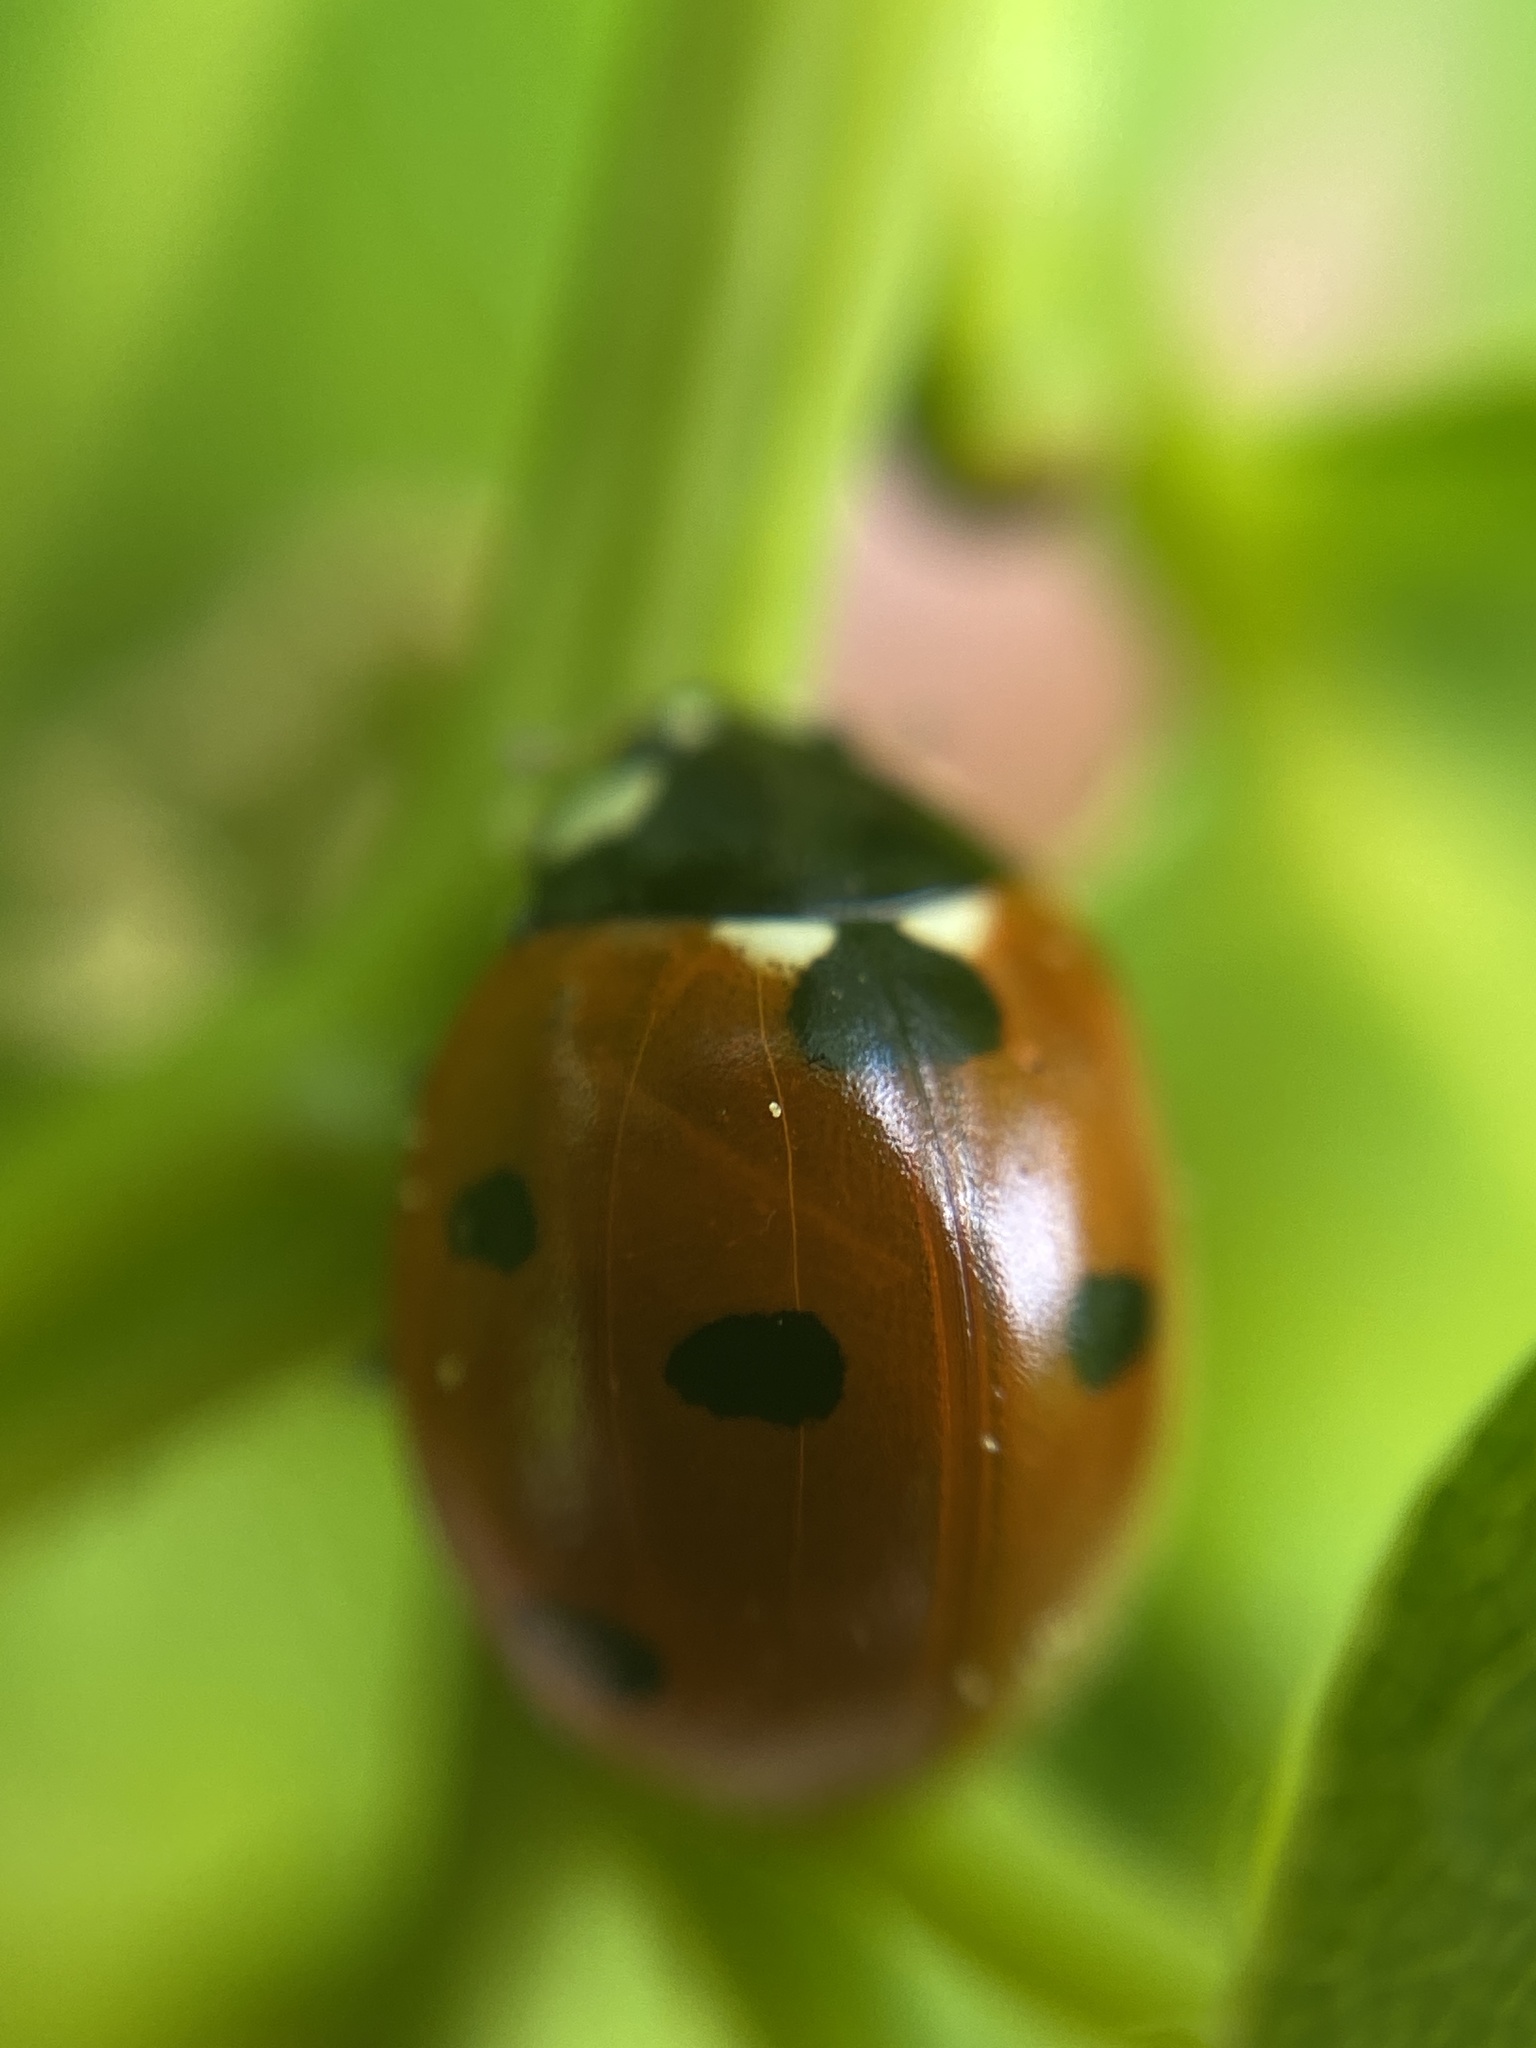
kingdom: Animalia
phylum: Arthropoda
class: Insecta
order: Coleoptera
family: Coccinellidae
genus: Coccinella
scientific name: Coccinella septempunctata
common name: Sevenspotted lady beetle
